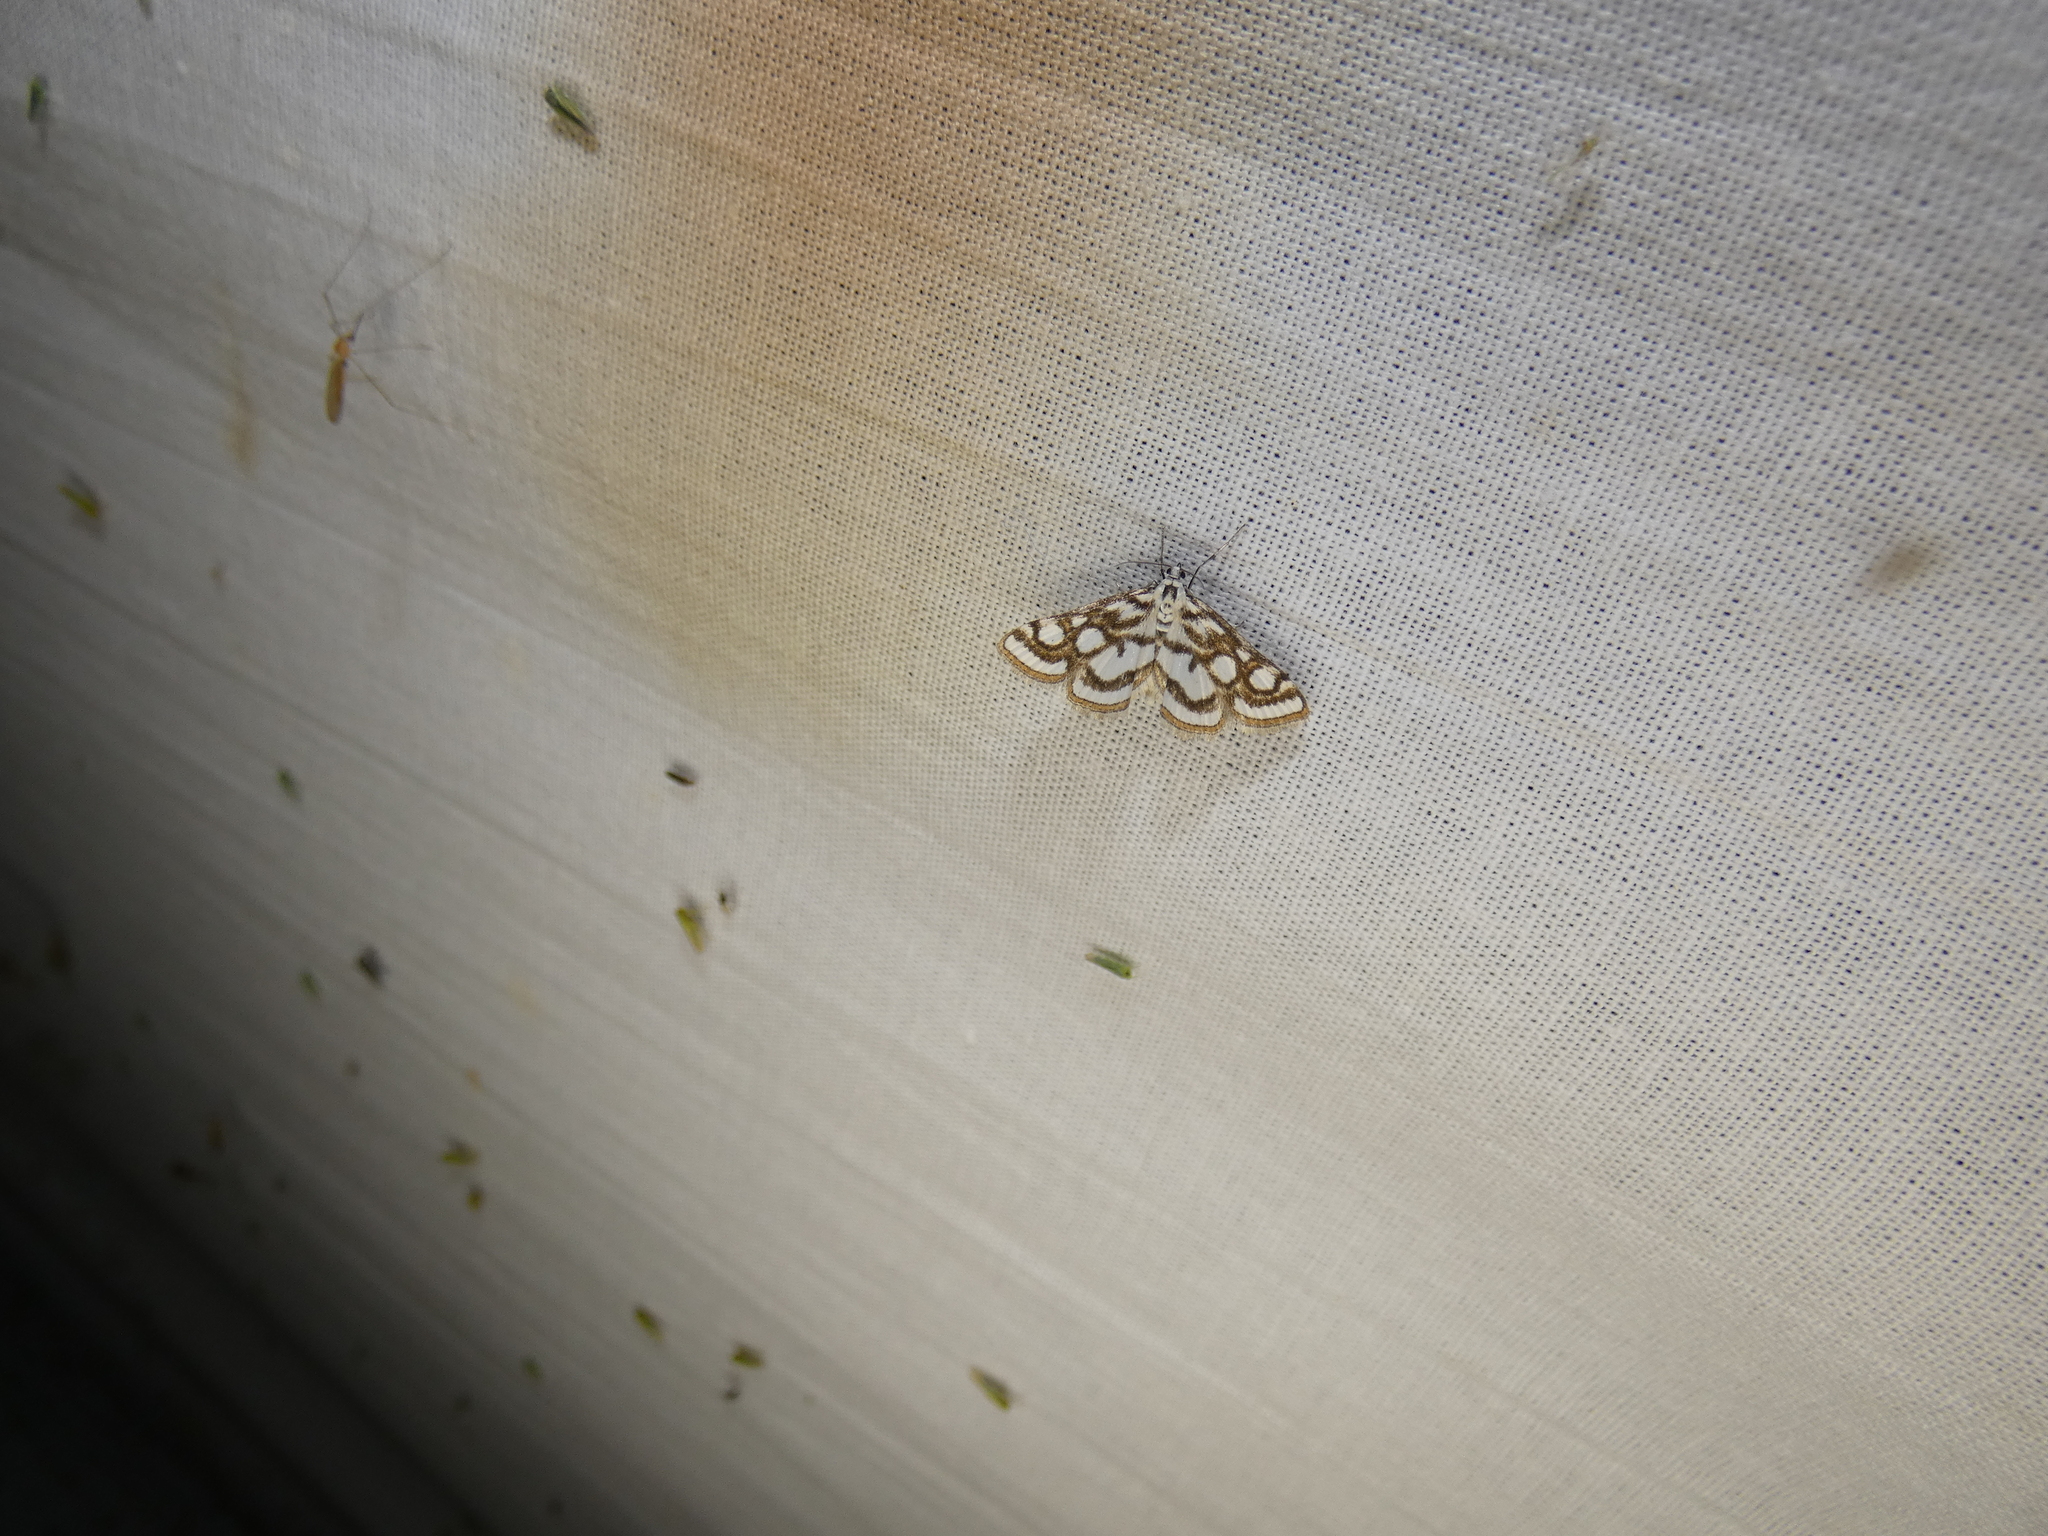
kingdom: Animalia
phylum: Arthropoda
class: Insecta
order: Lepidoptera
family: Crambidae
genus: Nymphula
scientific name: Nymphula nitidulata
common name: Beautiful china mark
